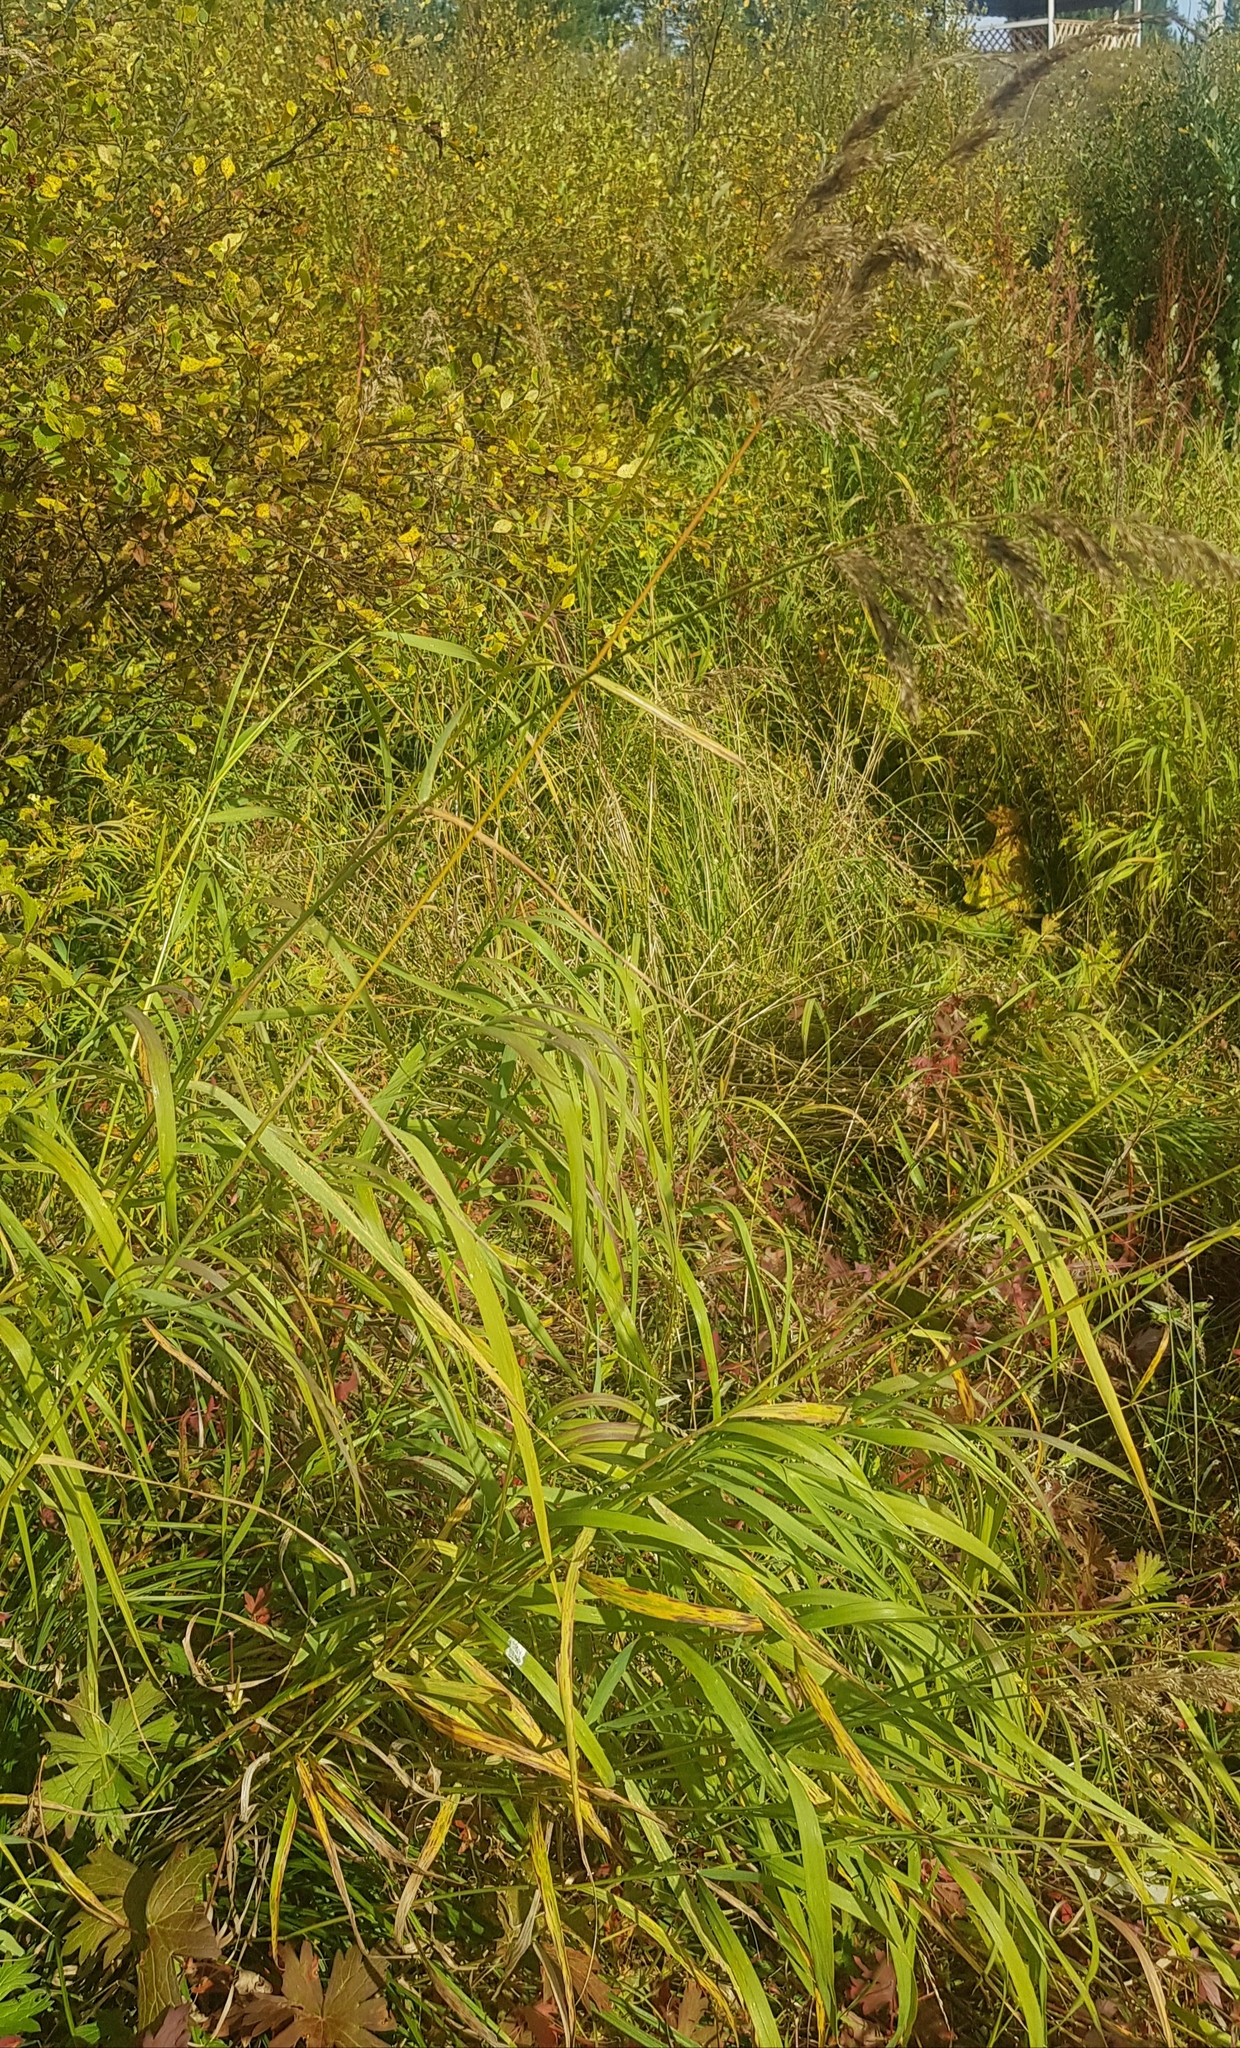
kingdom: Plantae
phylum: Tracheophyta
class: Liliopsida
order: Poales
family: Poaceae
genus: Calamagrostis
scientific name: Calamagrostis purpurea
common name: Scandinavian small-reed
